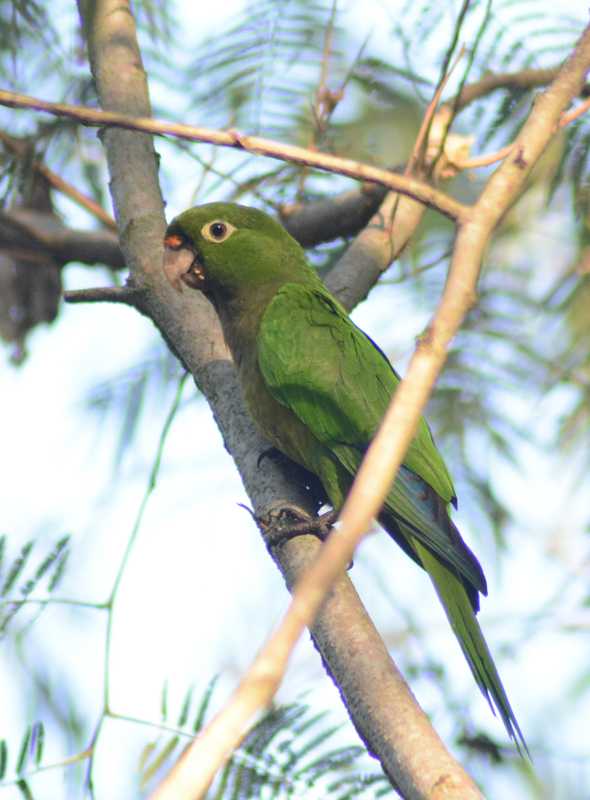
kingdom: Animalia
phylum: Chordata
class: Aves
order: Psittaciformes
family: Psittacidae
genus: Aratinga
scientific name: Aratinga nana
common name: Olive-throated parakeet
